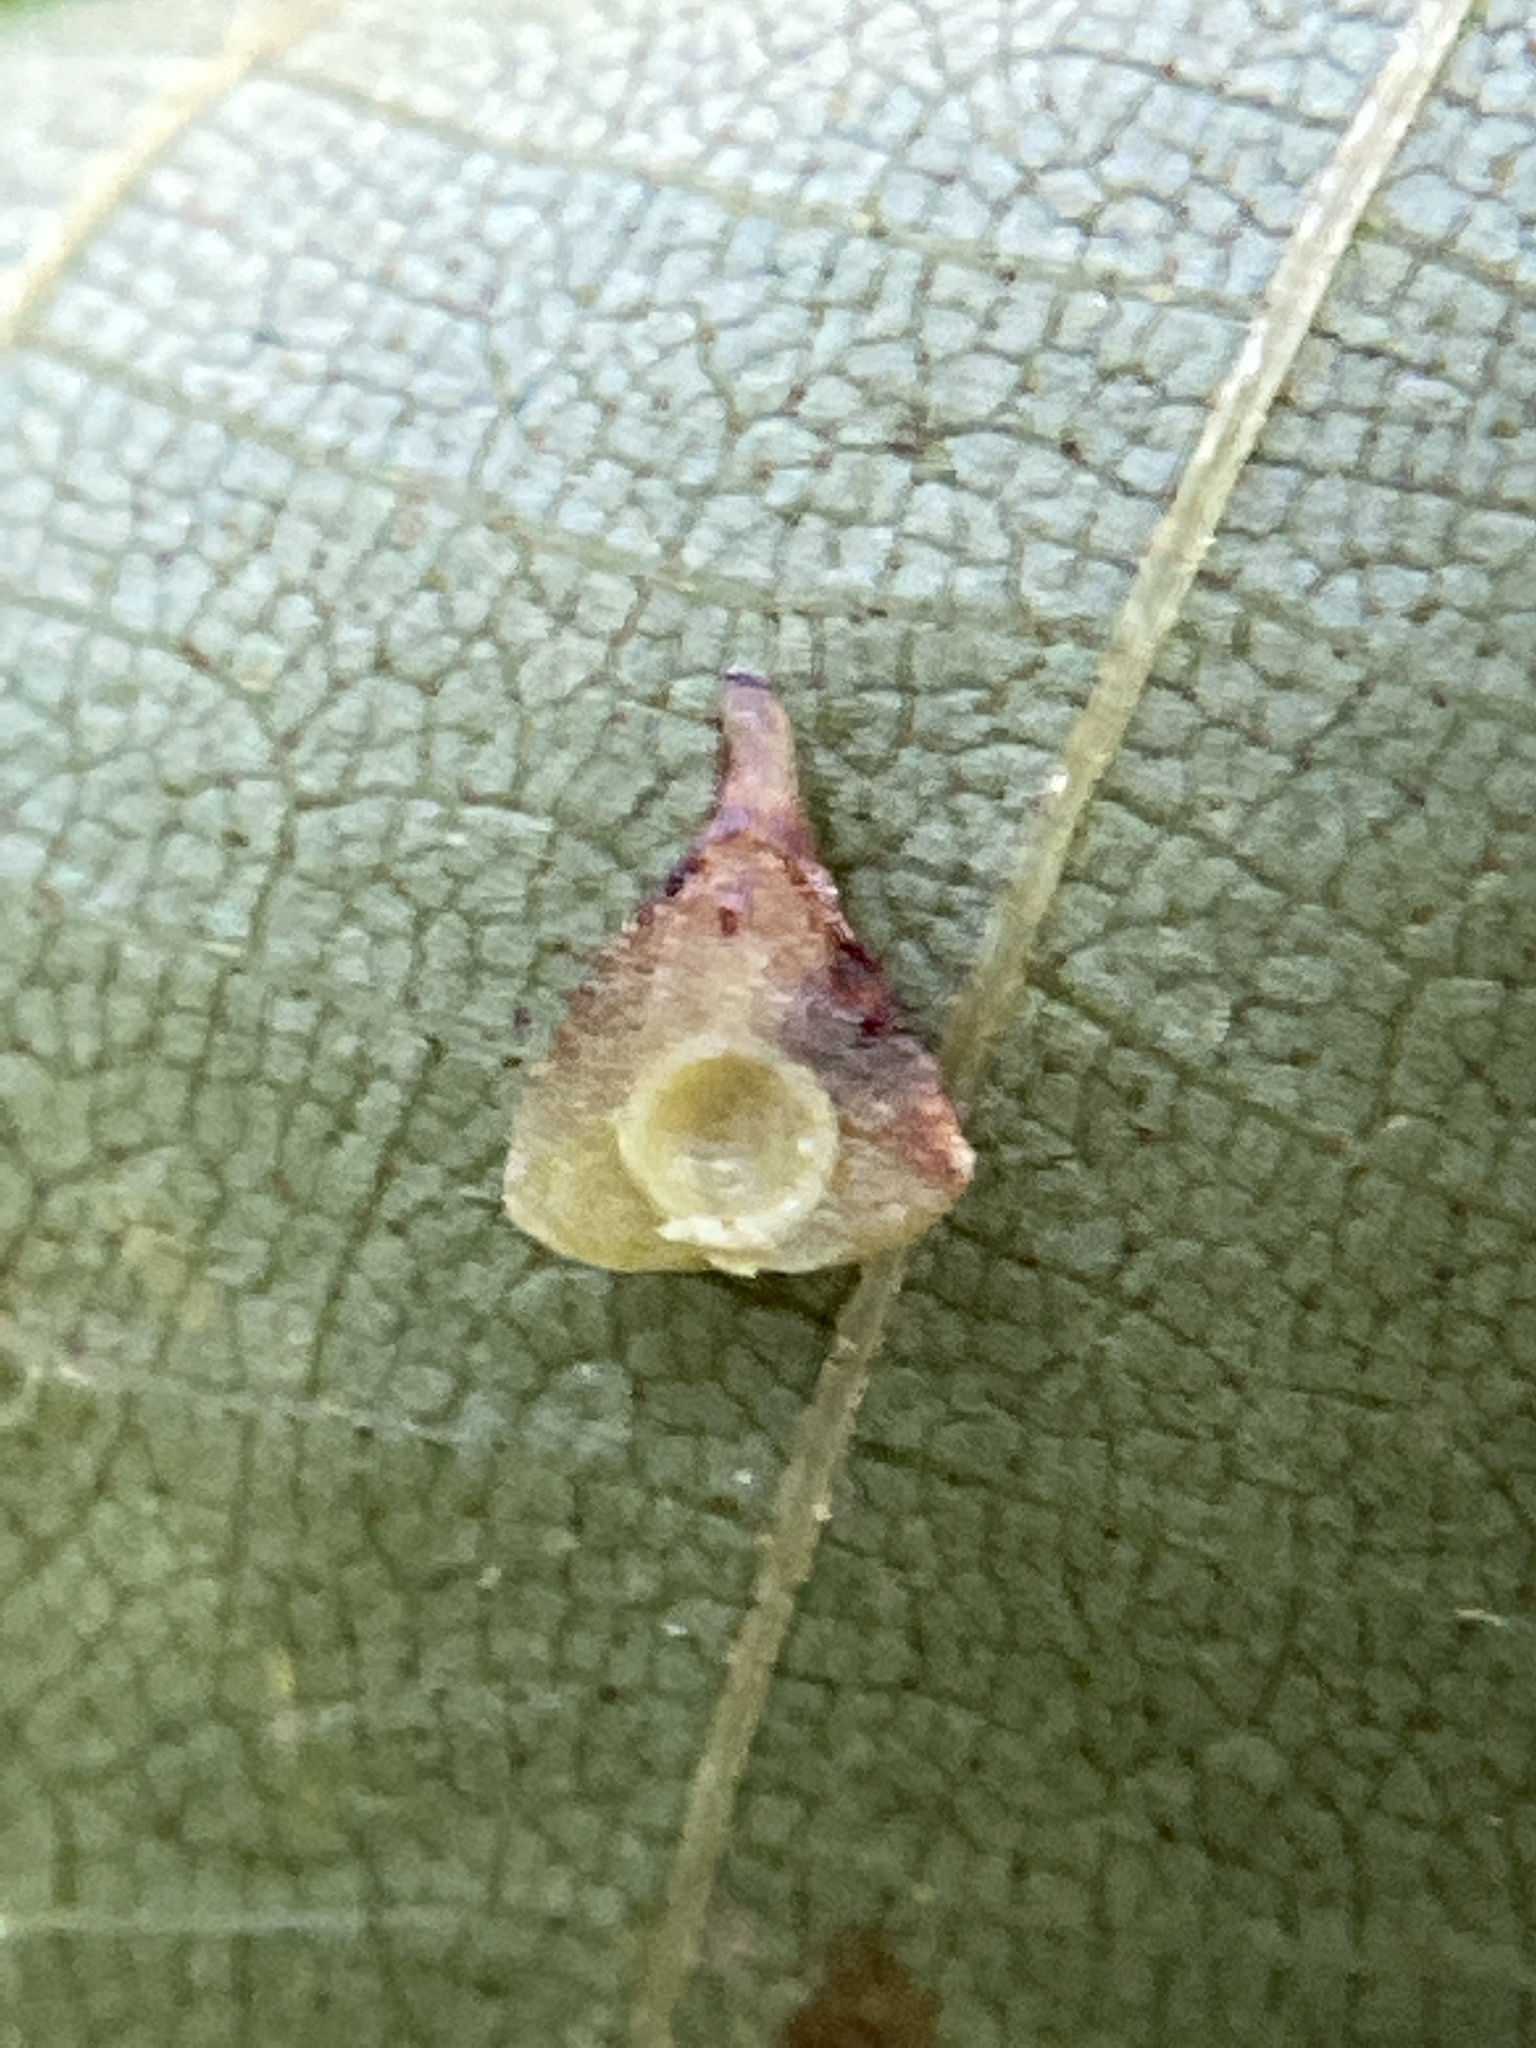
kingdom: Animalia
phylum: Arthropoda
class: Insecta
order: Diptera
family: Cecidomyiidae
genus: Caryomyia
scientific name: Caryomyia sanguinolenta
